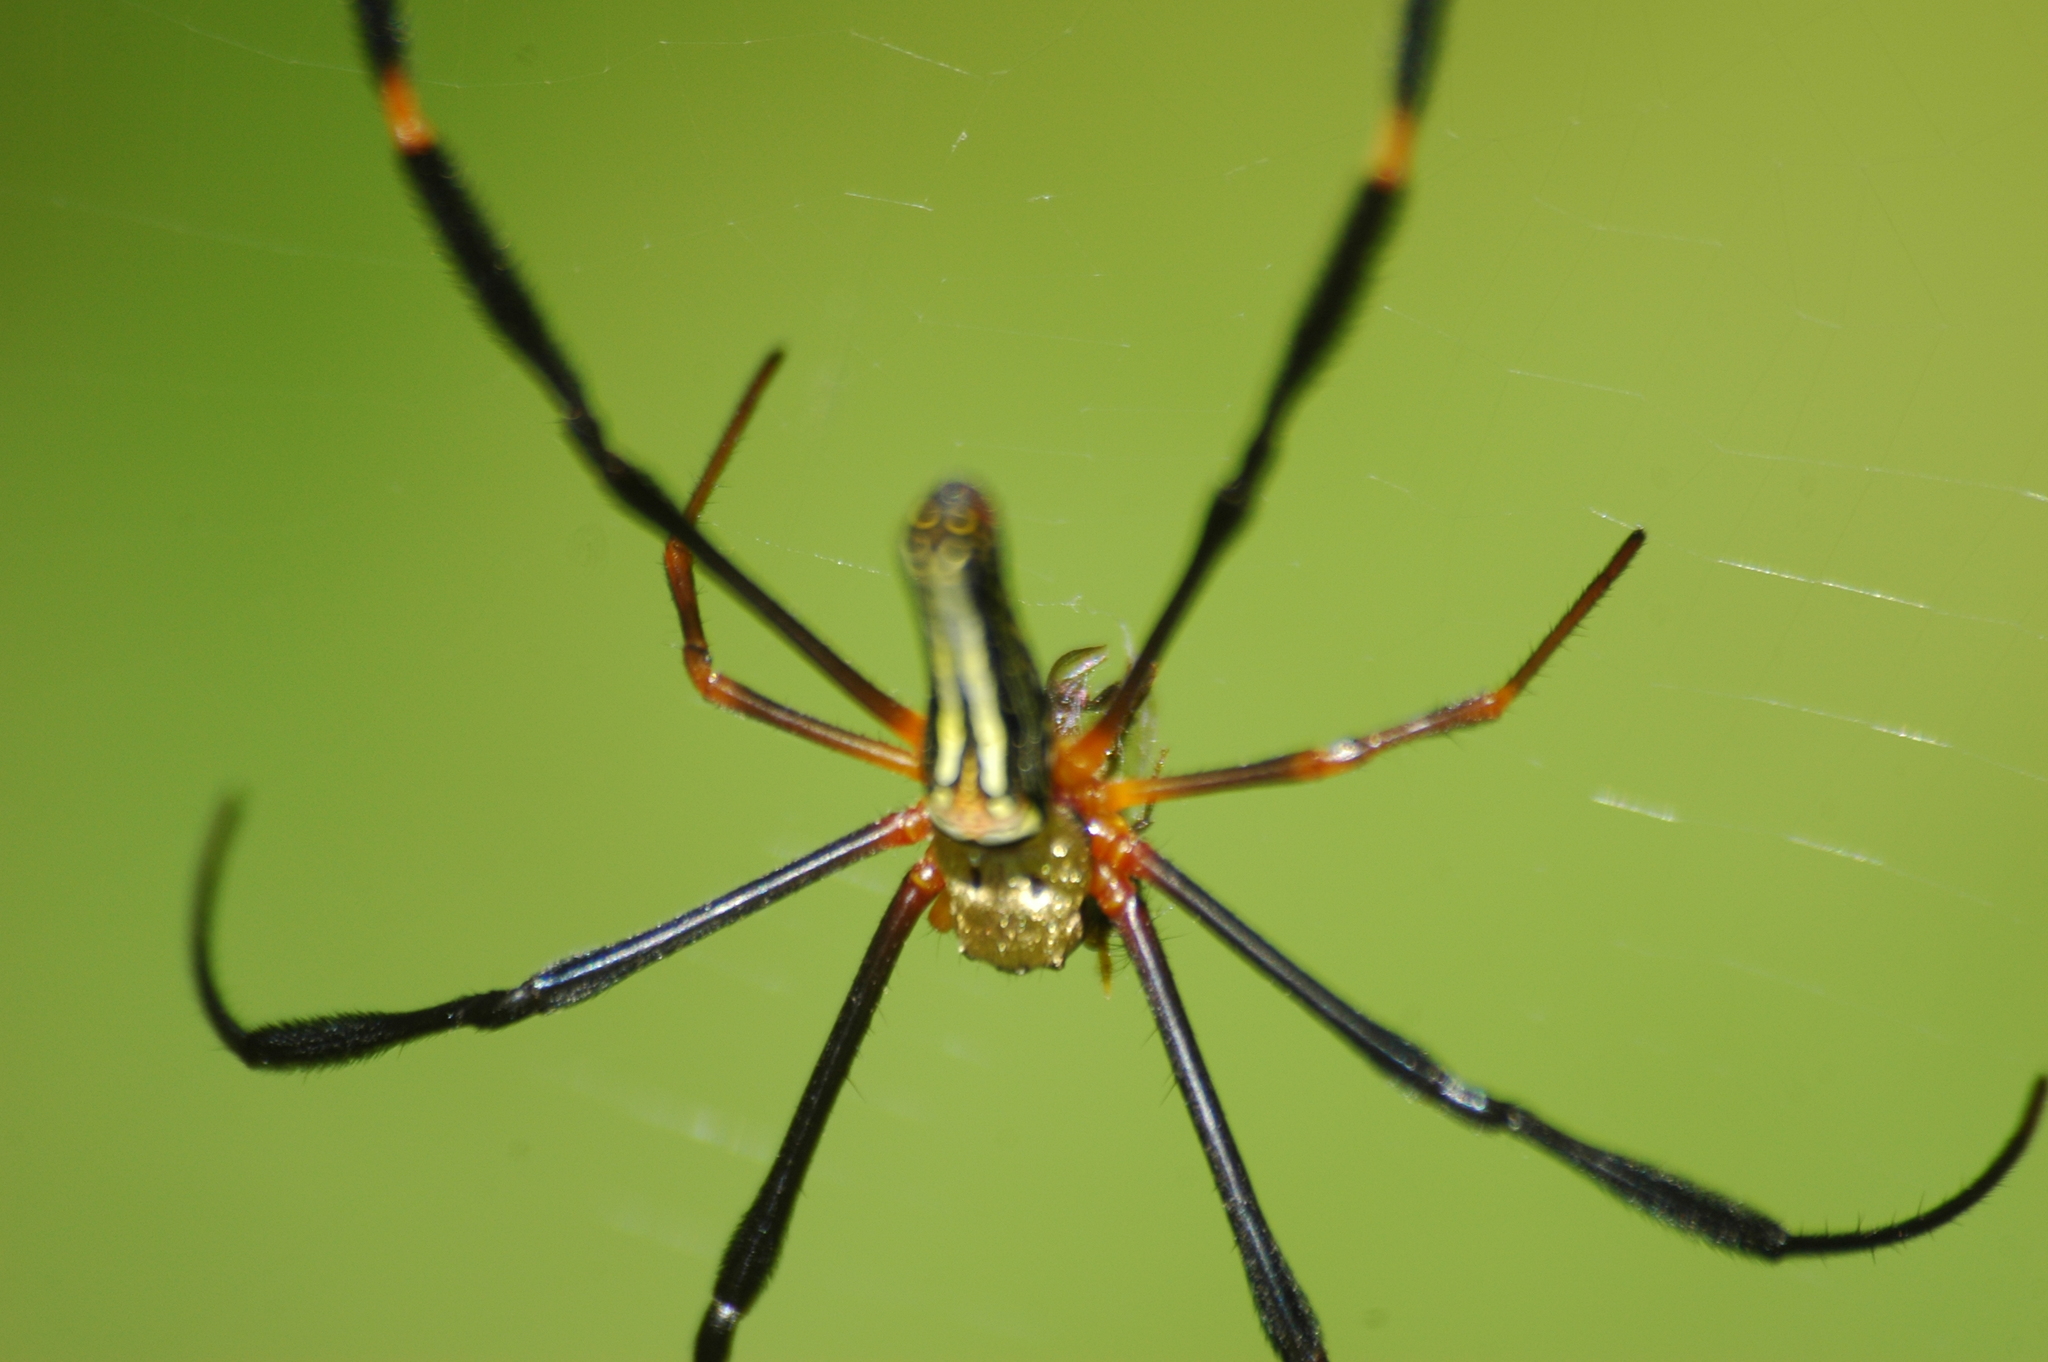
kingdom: Animalia
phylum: Arthropoda
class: Arachnida
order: Araneae
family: Araneidae
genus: Nephila
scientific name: Nephila pilipes
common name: Giant golden orb weaver
